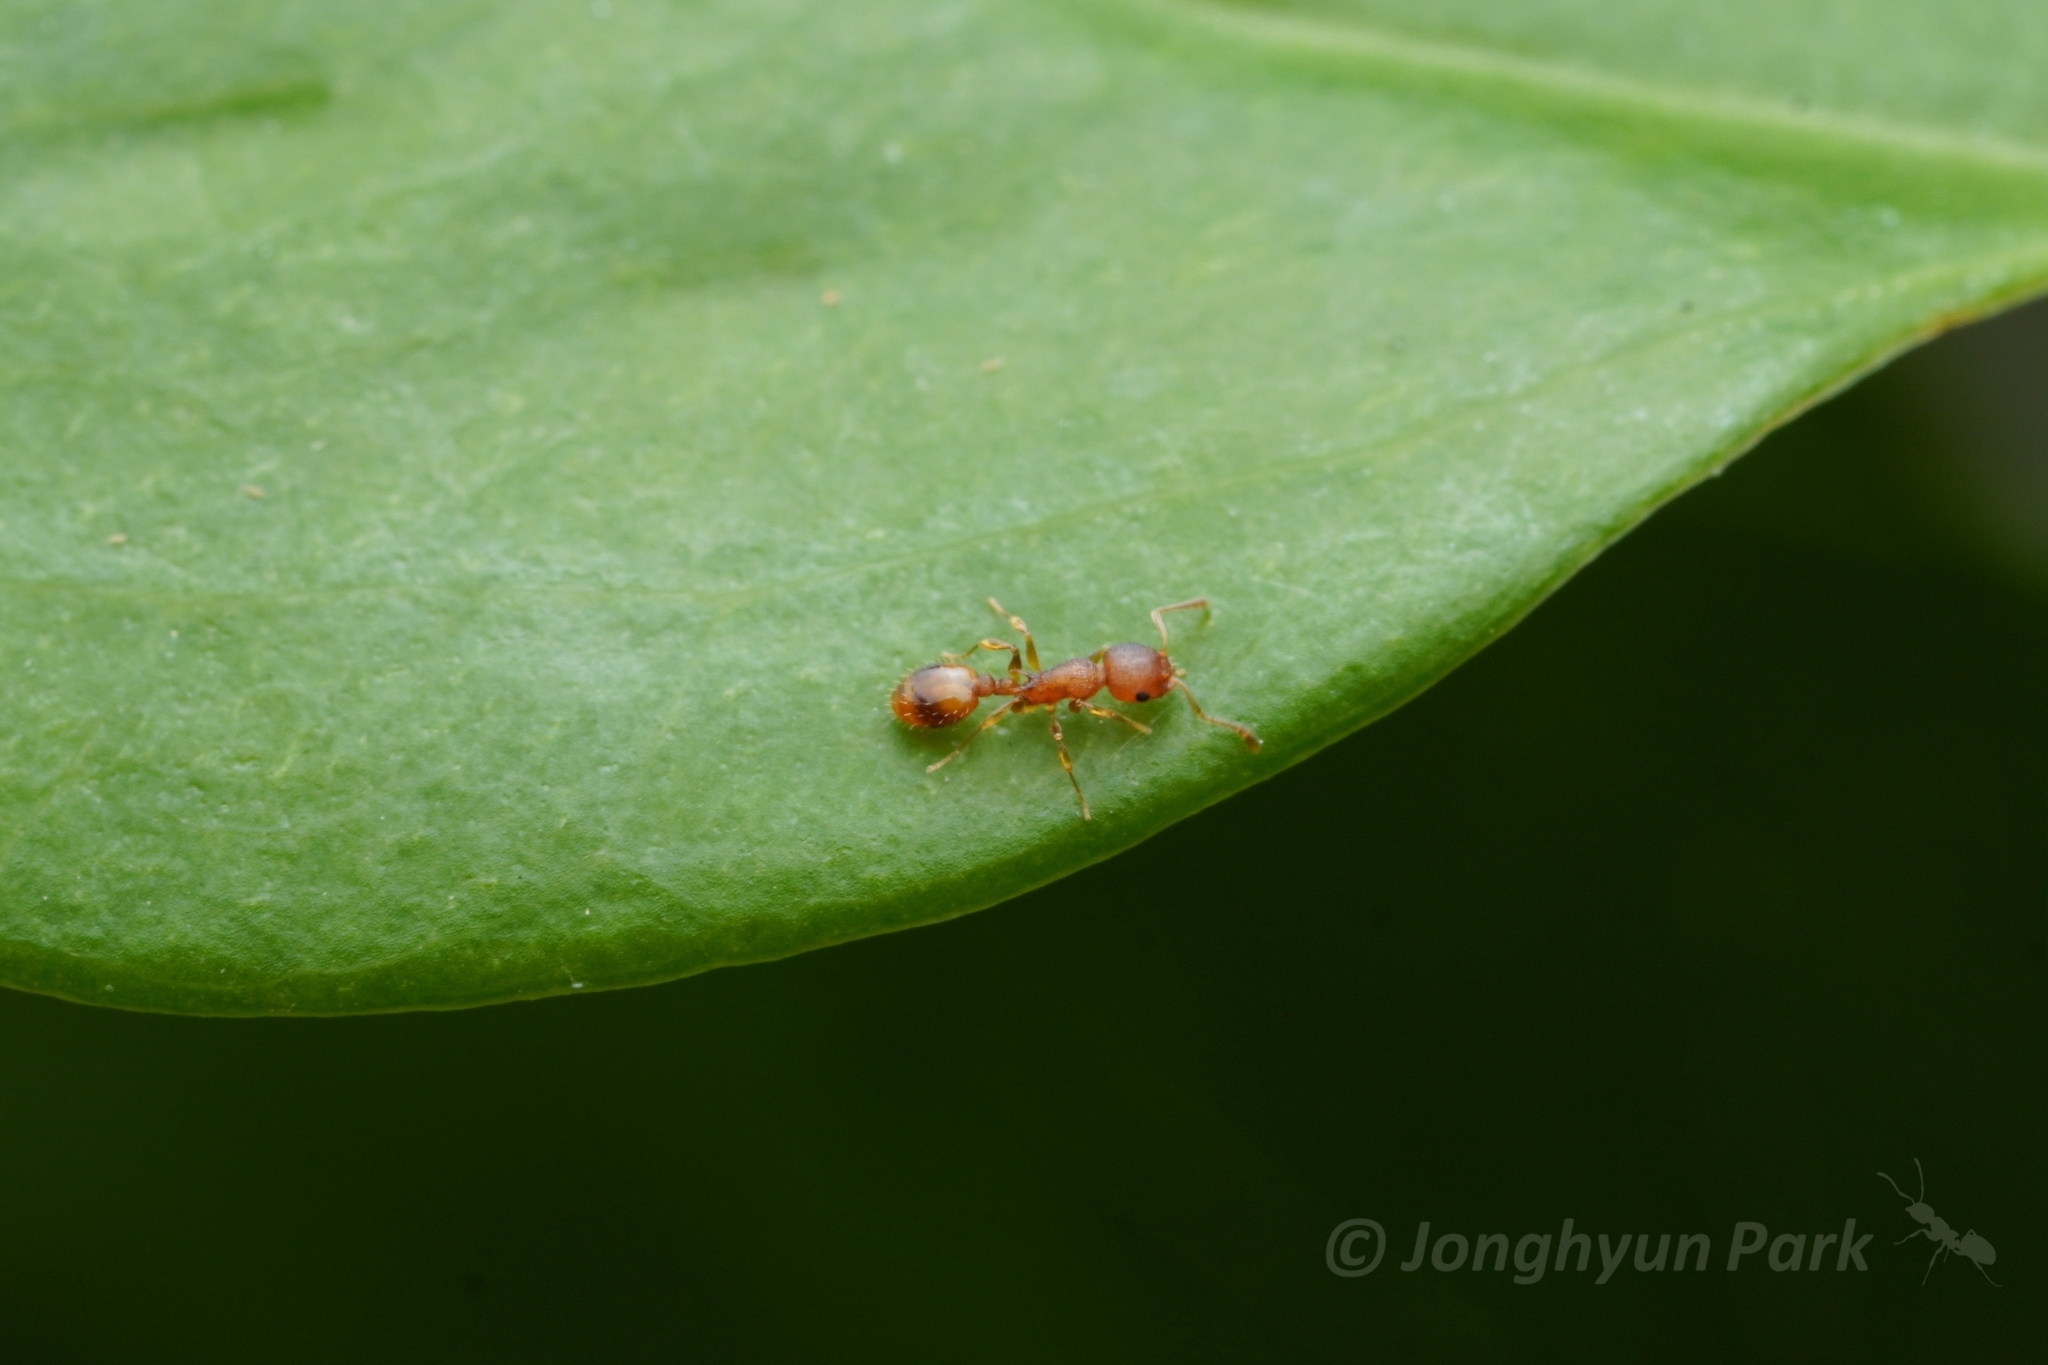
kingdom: Animalia
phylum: Arthropoda
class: Insecta
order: Hymenoptera
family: Formicidae
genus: Temnothorax
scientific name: Temnothorax curvispinosus
